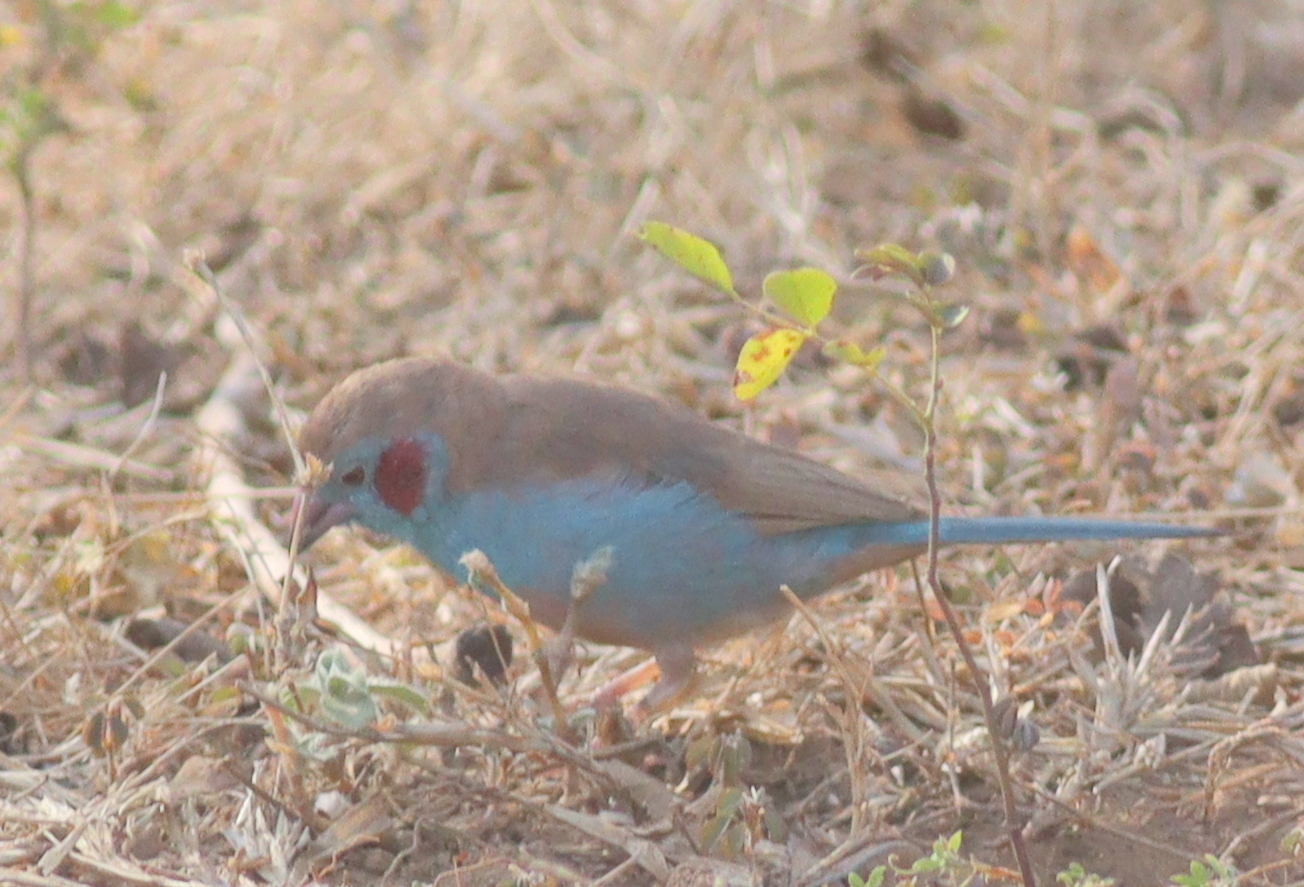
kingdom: Animalia
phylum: Chordata
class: Aves
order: Passeriformes
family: Estrildidae
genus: Uraeginthus
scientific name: Uraeginthus bengalus
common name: Red-cheeked cordon-bleu
